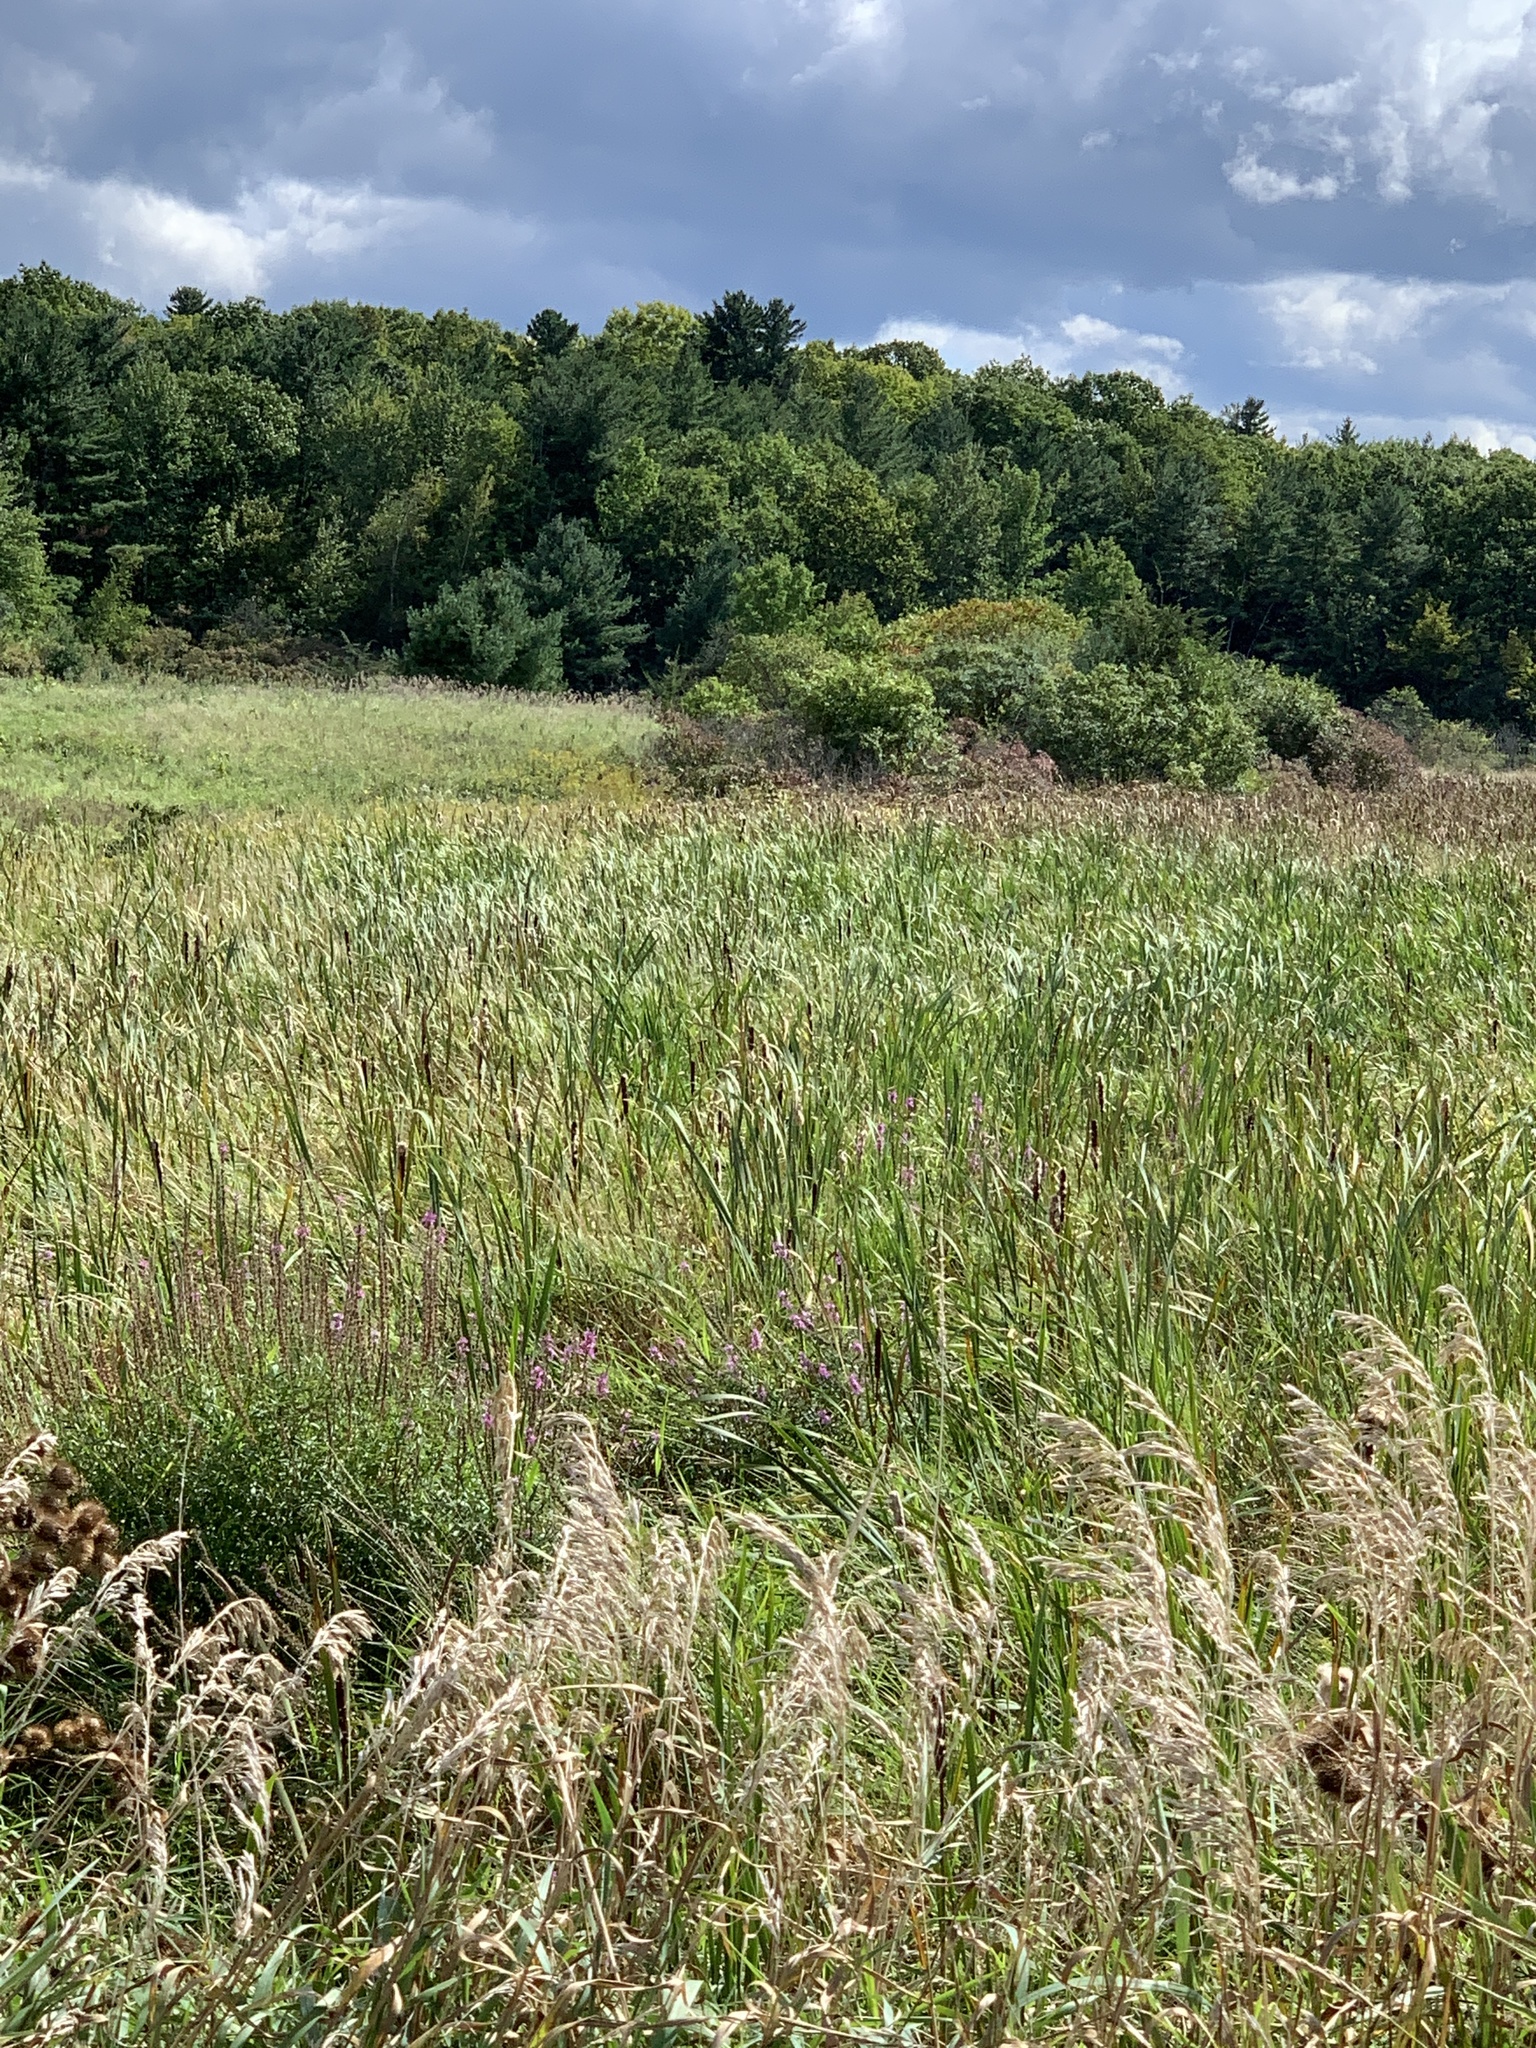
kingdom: Plantae
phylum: Tracheophyta
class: Magnoliopsida
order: Myrtales
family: Lythraceae
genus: Lythrum
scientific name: Lythrum salicaria
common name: Purple loosestrife
